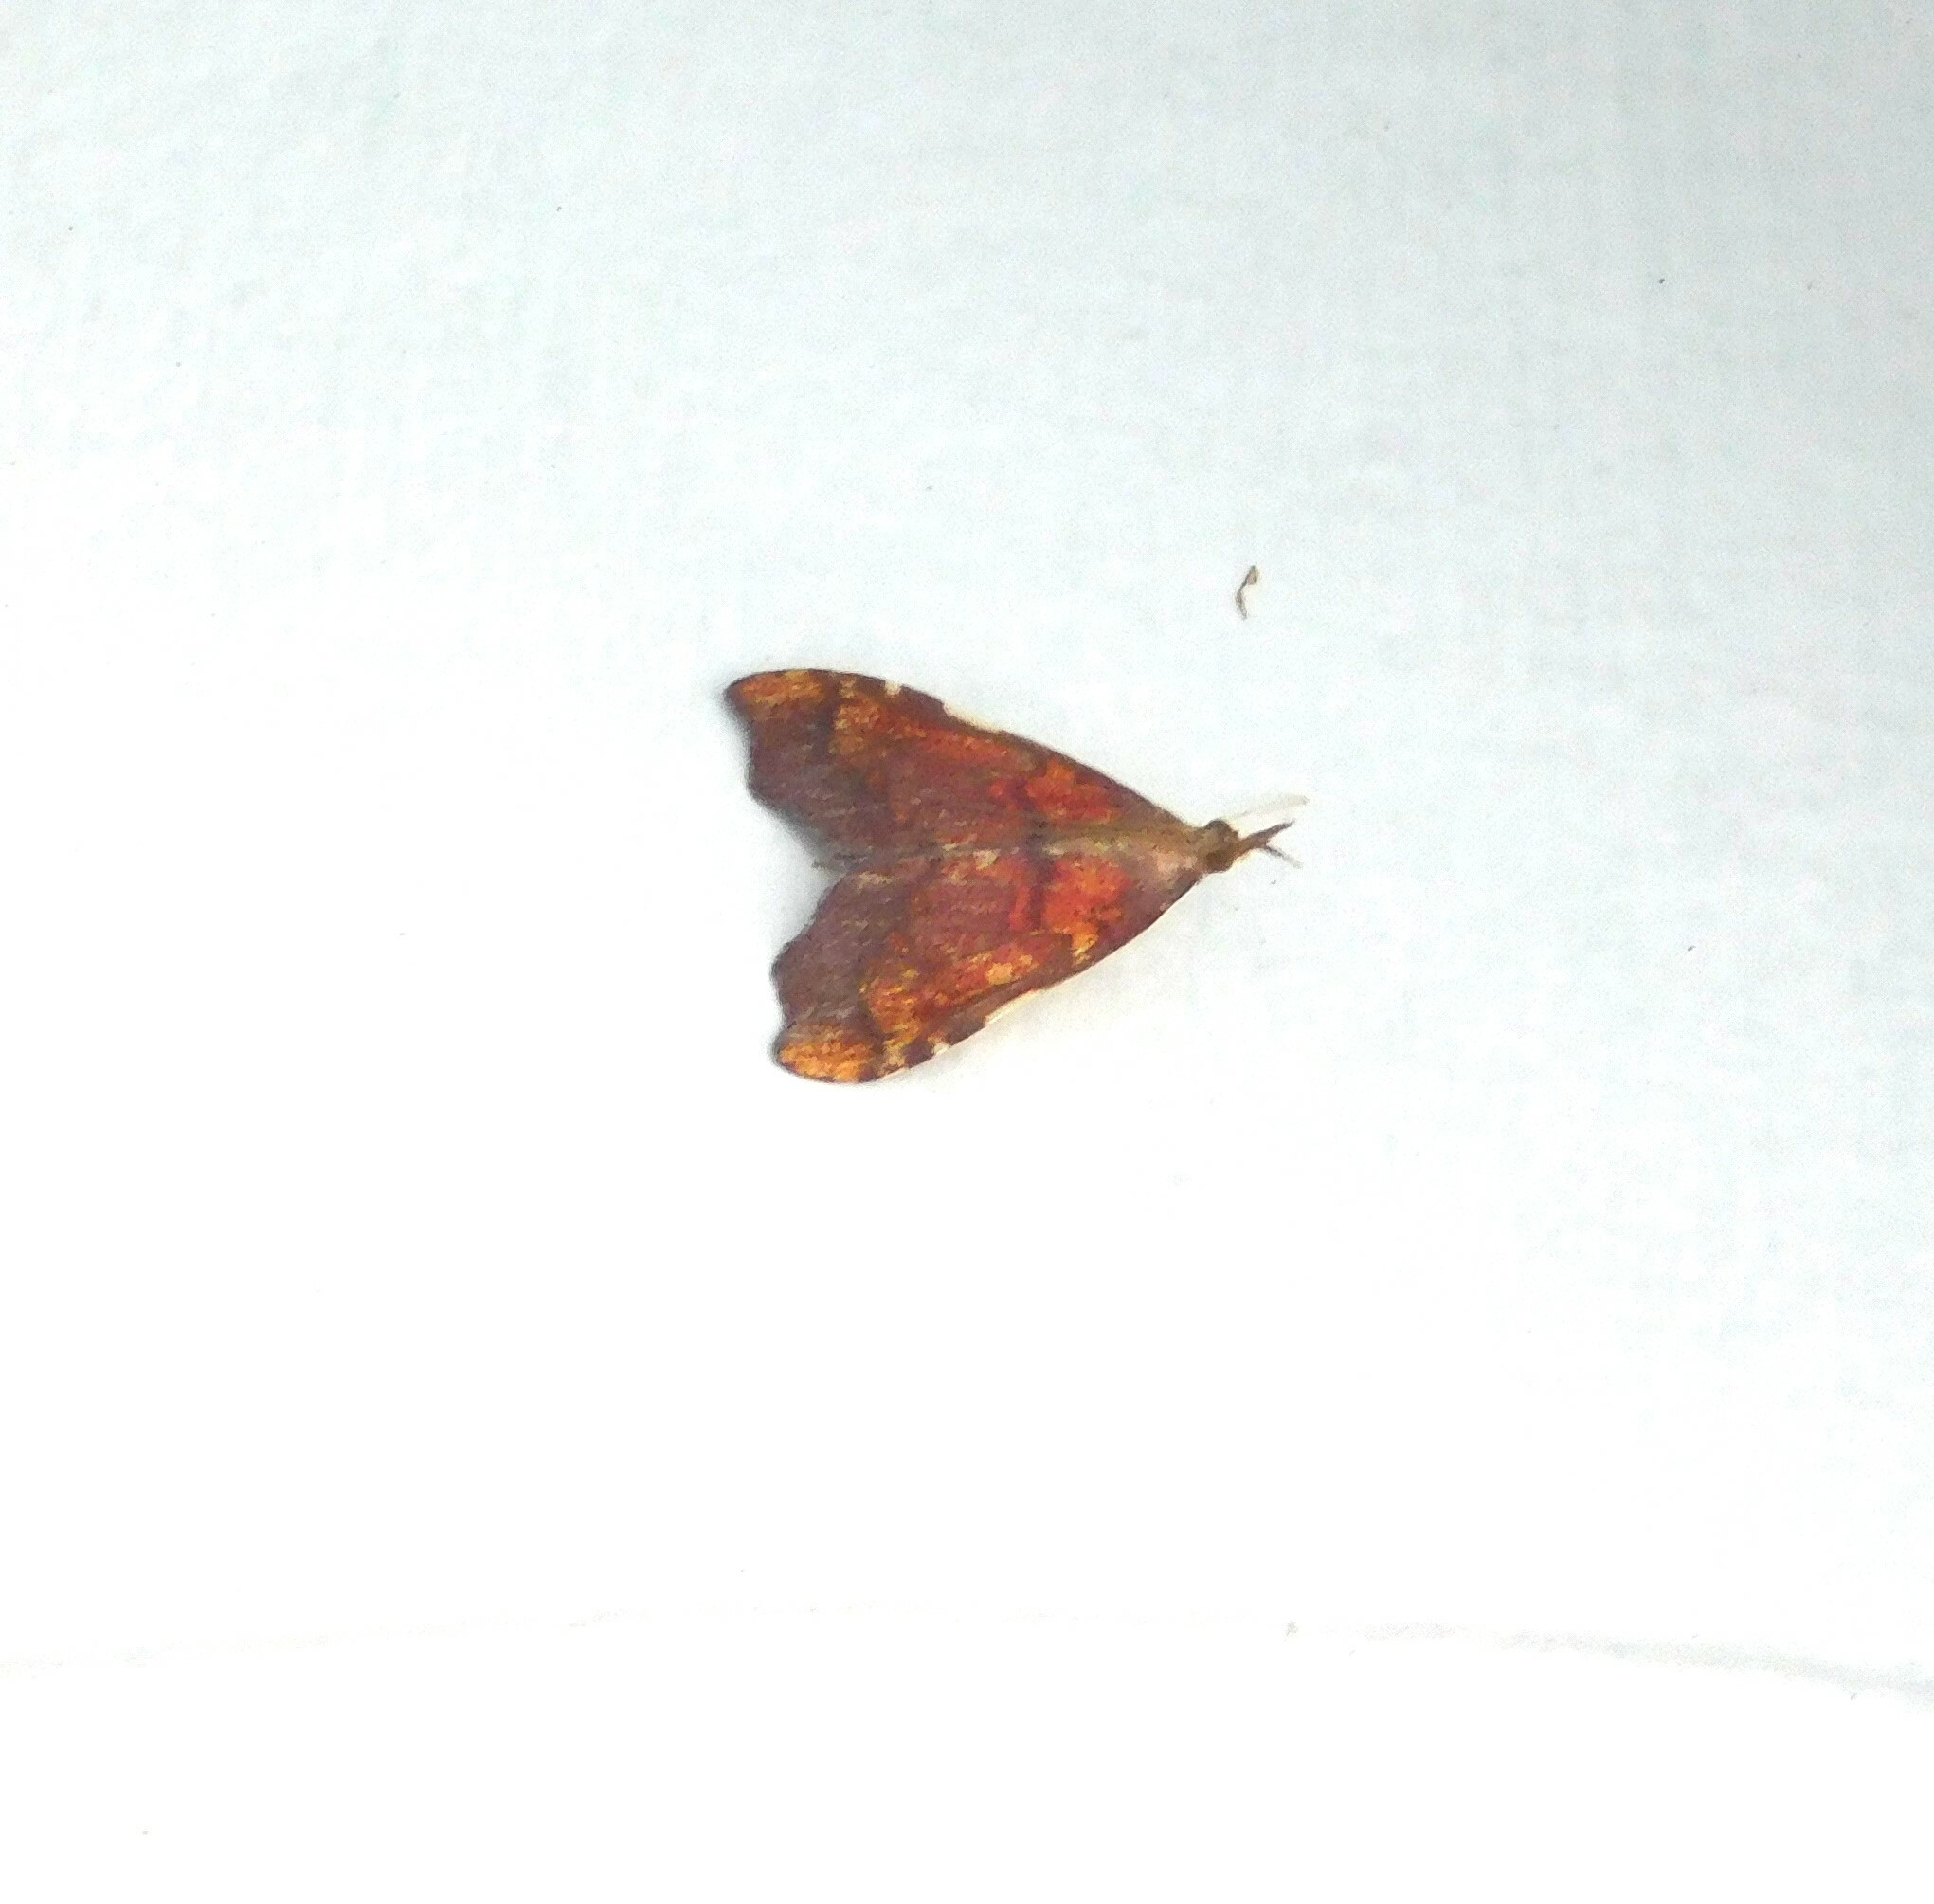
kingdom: Animalia
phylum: Arthropoda
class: Insecta
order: Lepidoptera
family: Crambidae
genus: Deana
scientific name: Deana hybreasalis
